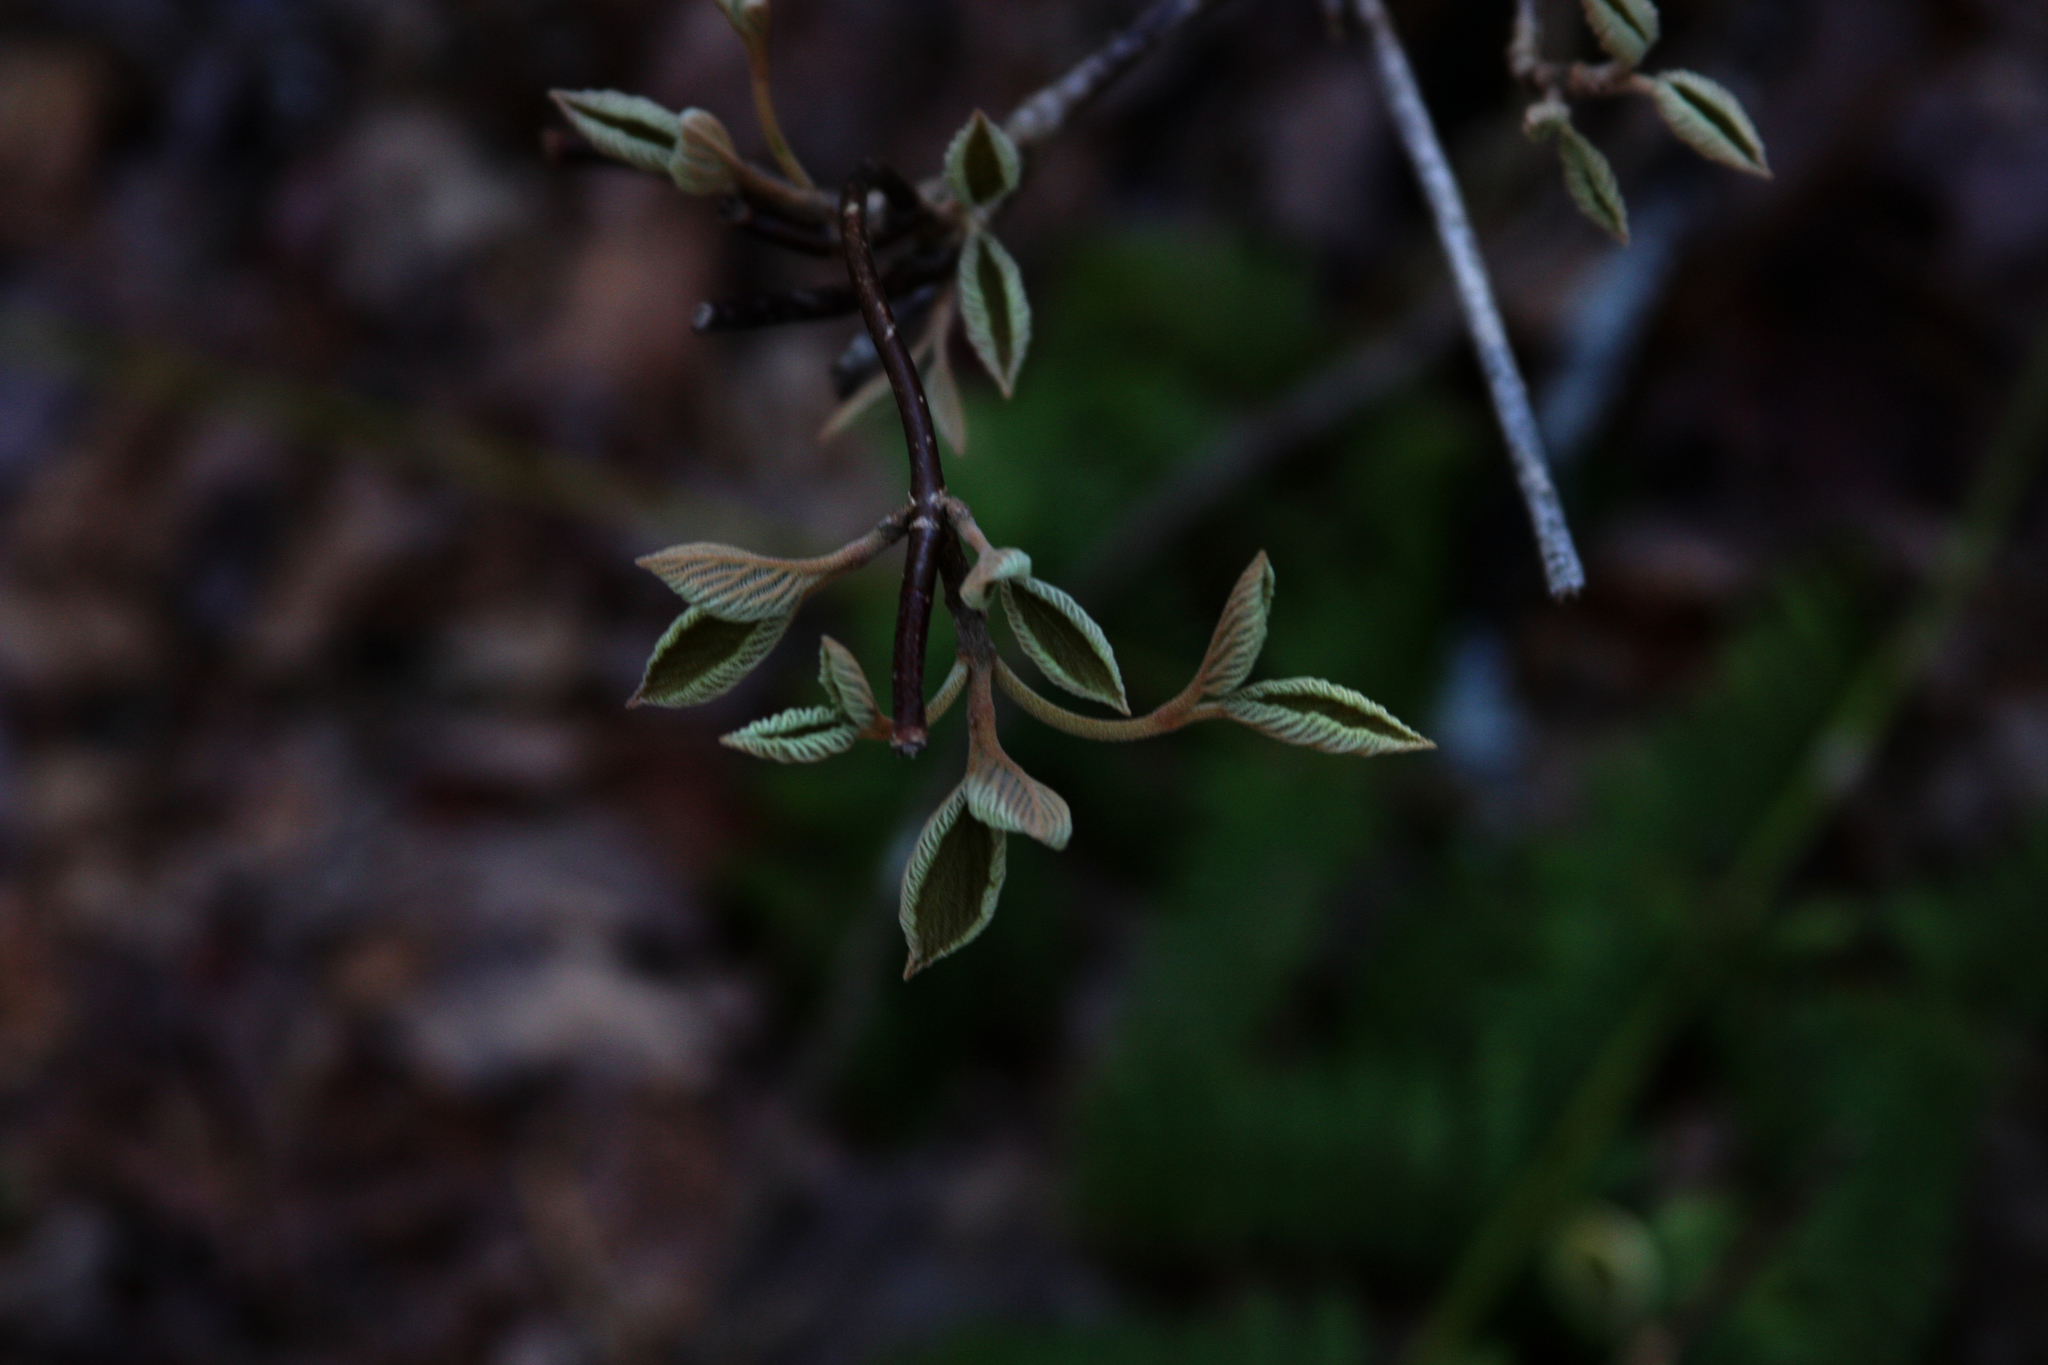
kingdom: Plantae
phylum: Tracheophyta
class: Magnoliopsida
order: Dipsacales
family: Viburnaceae
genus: Viburnum
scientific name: Viburnum lantanoides
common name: Hobblebush
